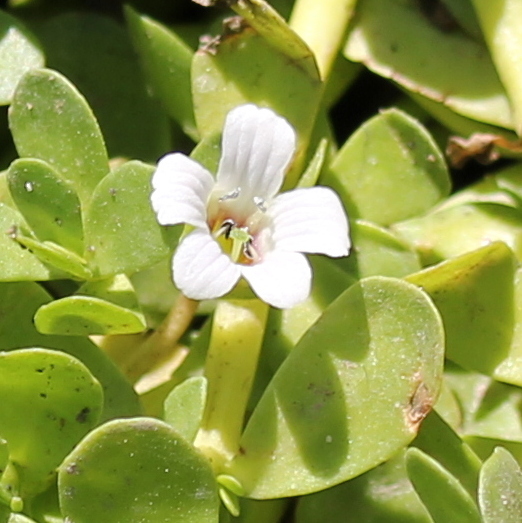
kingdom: Plantae
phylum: Tracheophyta
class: Magnoliopsida
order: Lamiales
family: Plantaginaceae
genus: Bacopa
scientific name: Bacopa monnieri
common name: Indian-pennywort
